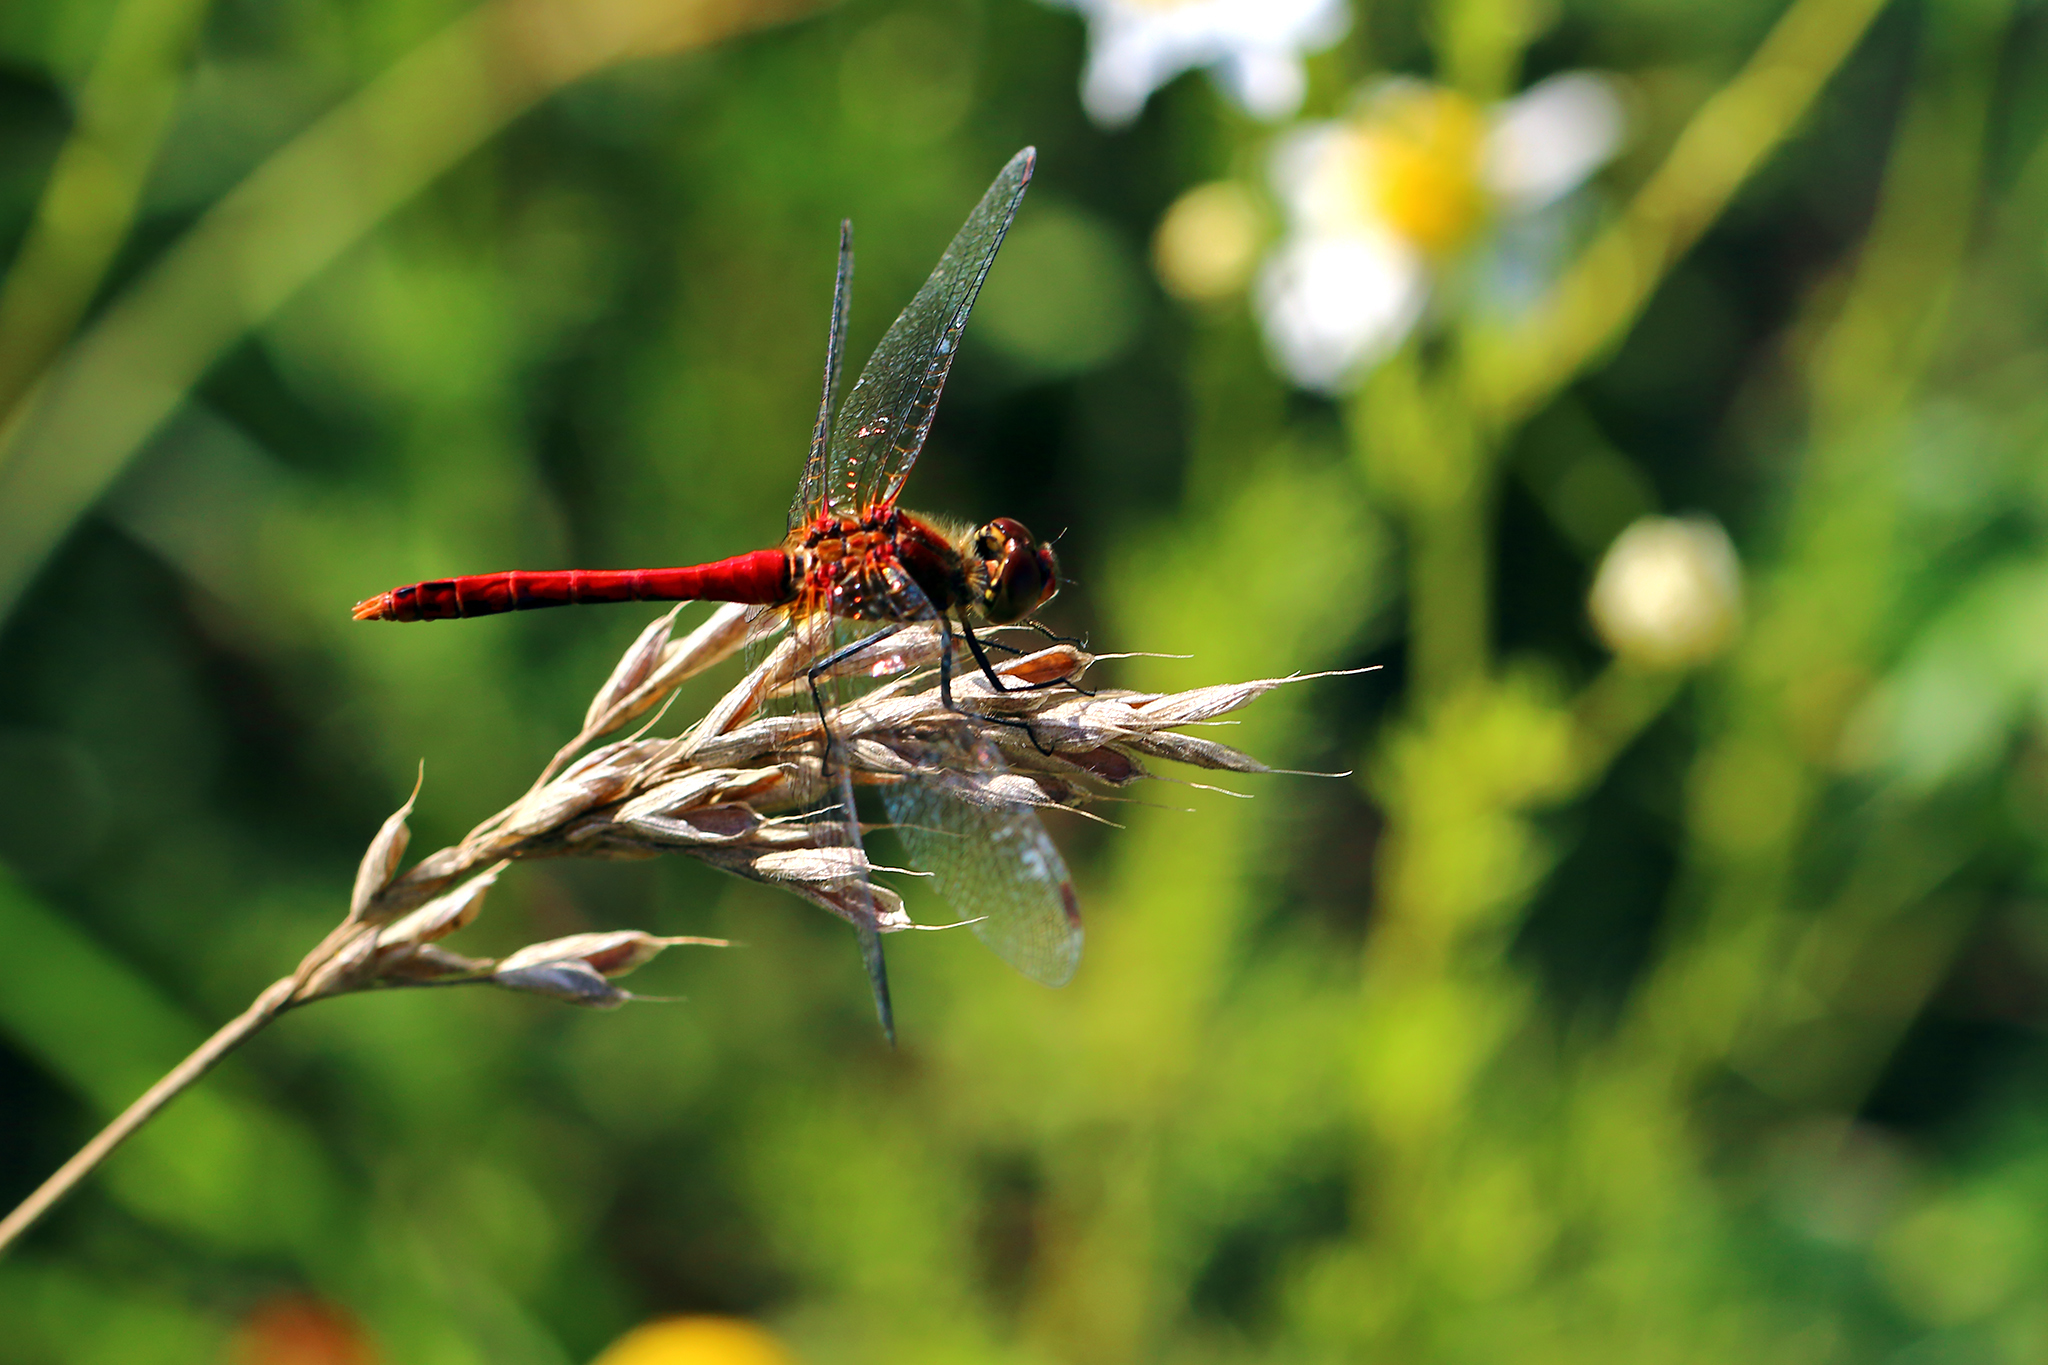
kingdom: Animalia
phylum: Arthropoda
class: Insecta
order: Odonata
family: Libellulidae
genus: Sympetrum
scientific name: Sympetrum sanguineum
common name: Ruddy darter
